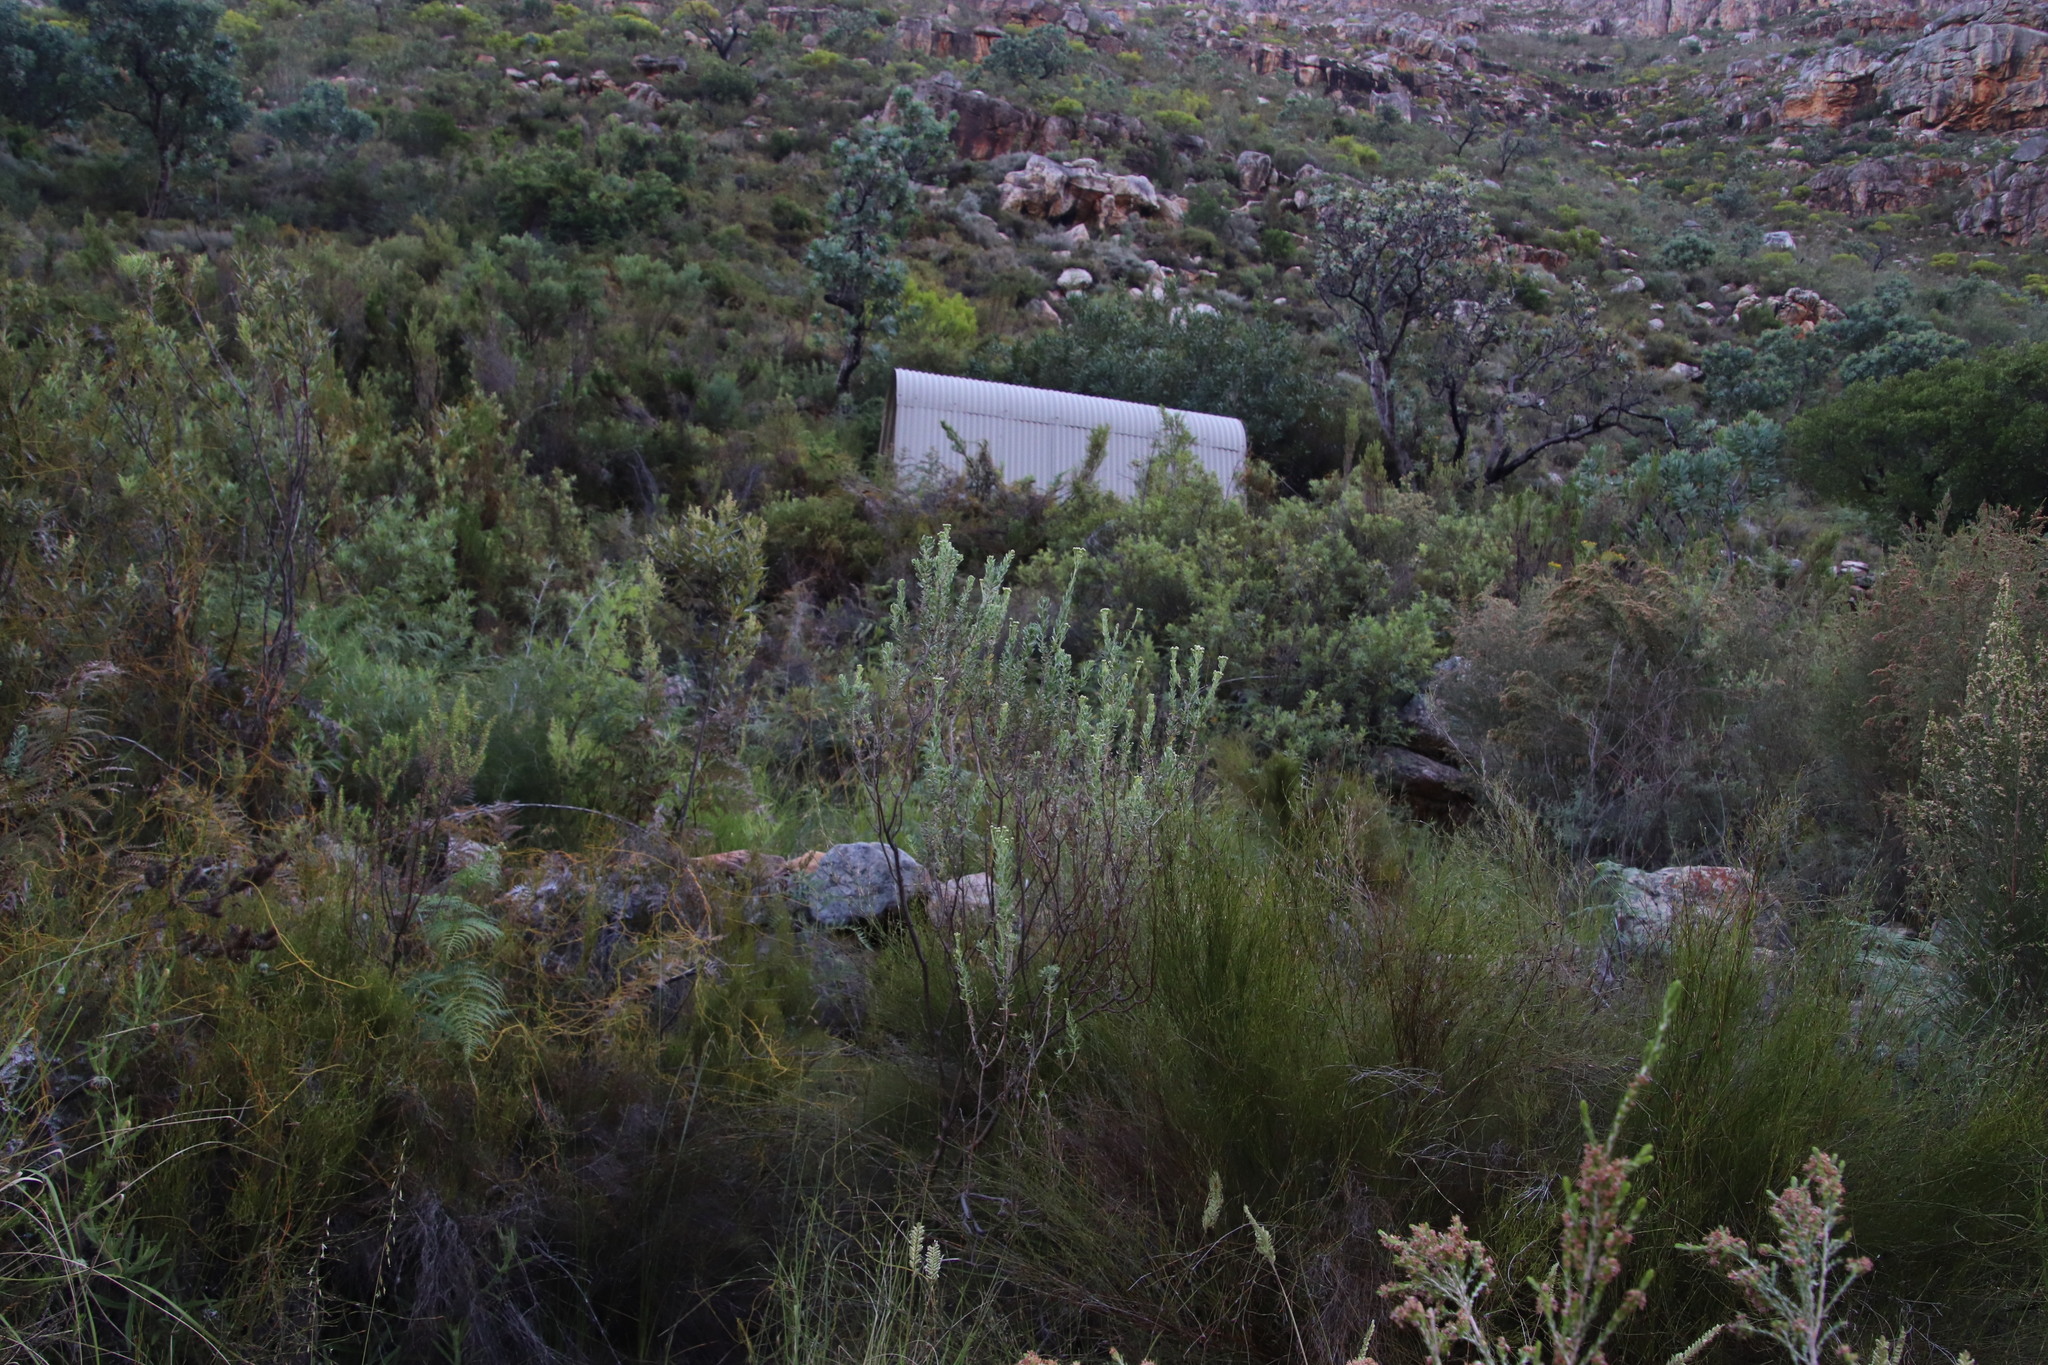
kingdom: Plantae
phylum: Tracheophyta
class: Magnoliopsida
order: Asterales
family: Asteraceae
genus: Athanasia
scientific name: Athanasia trifurcata
